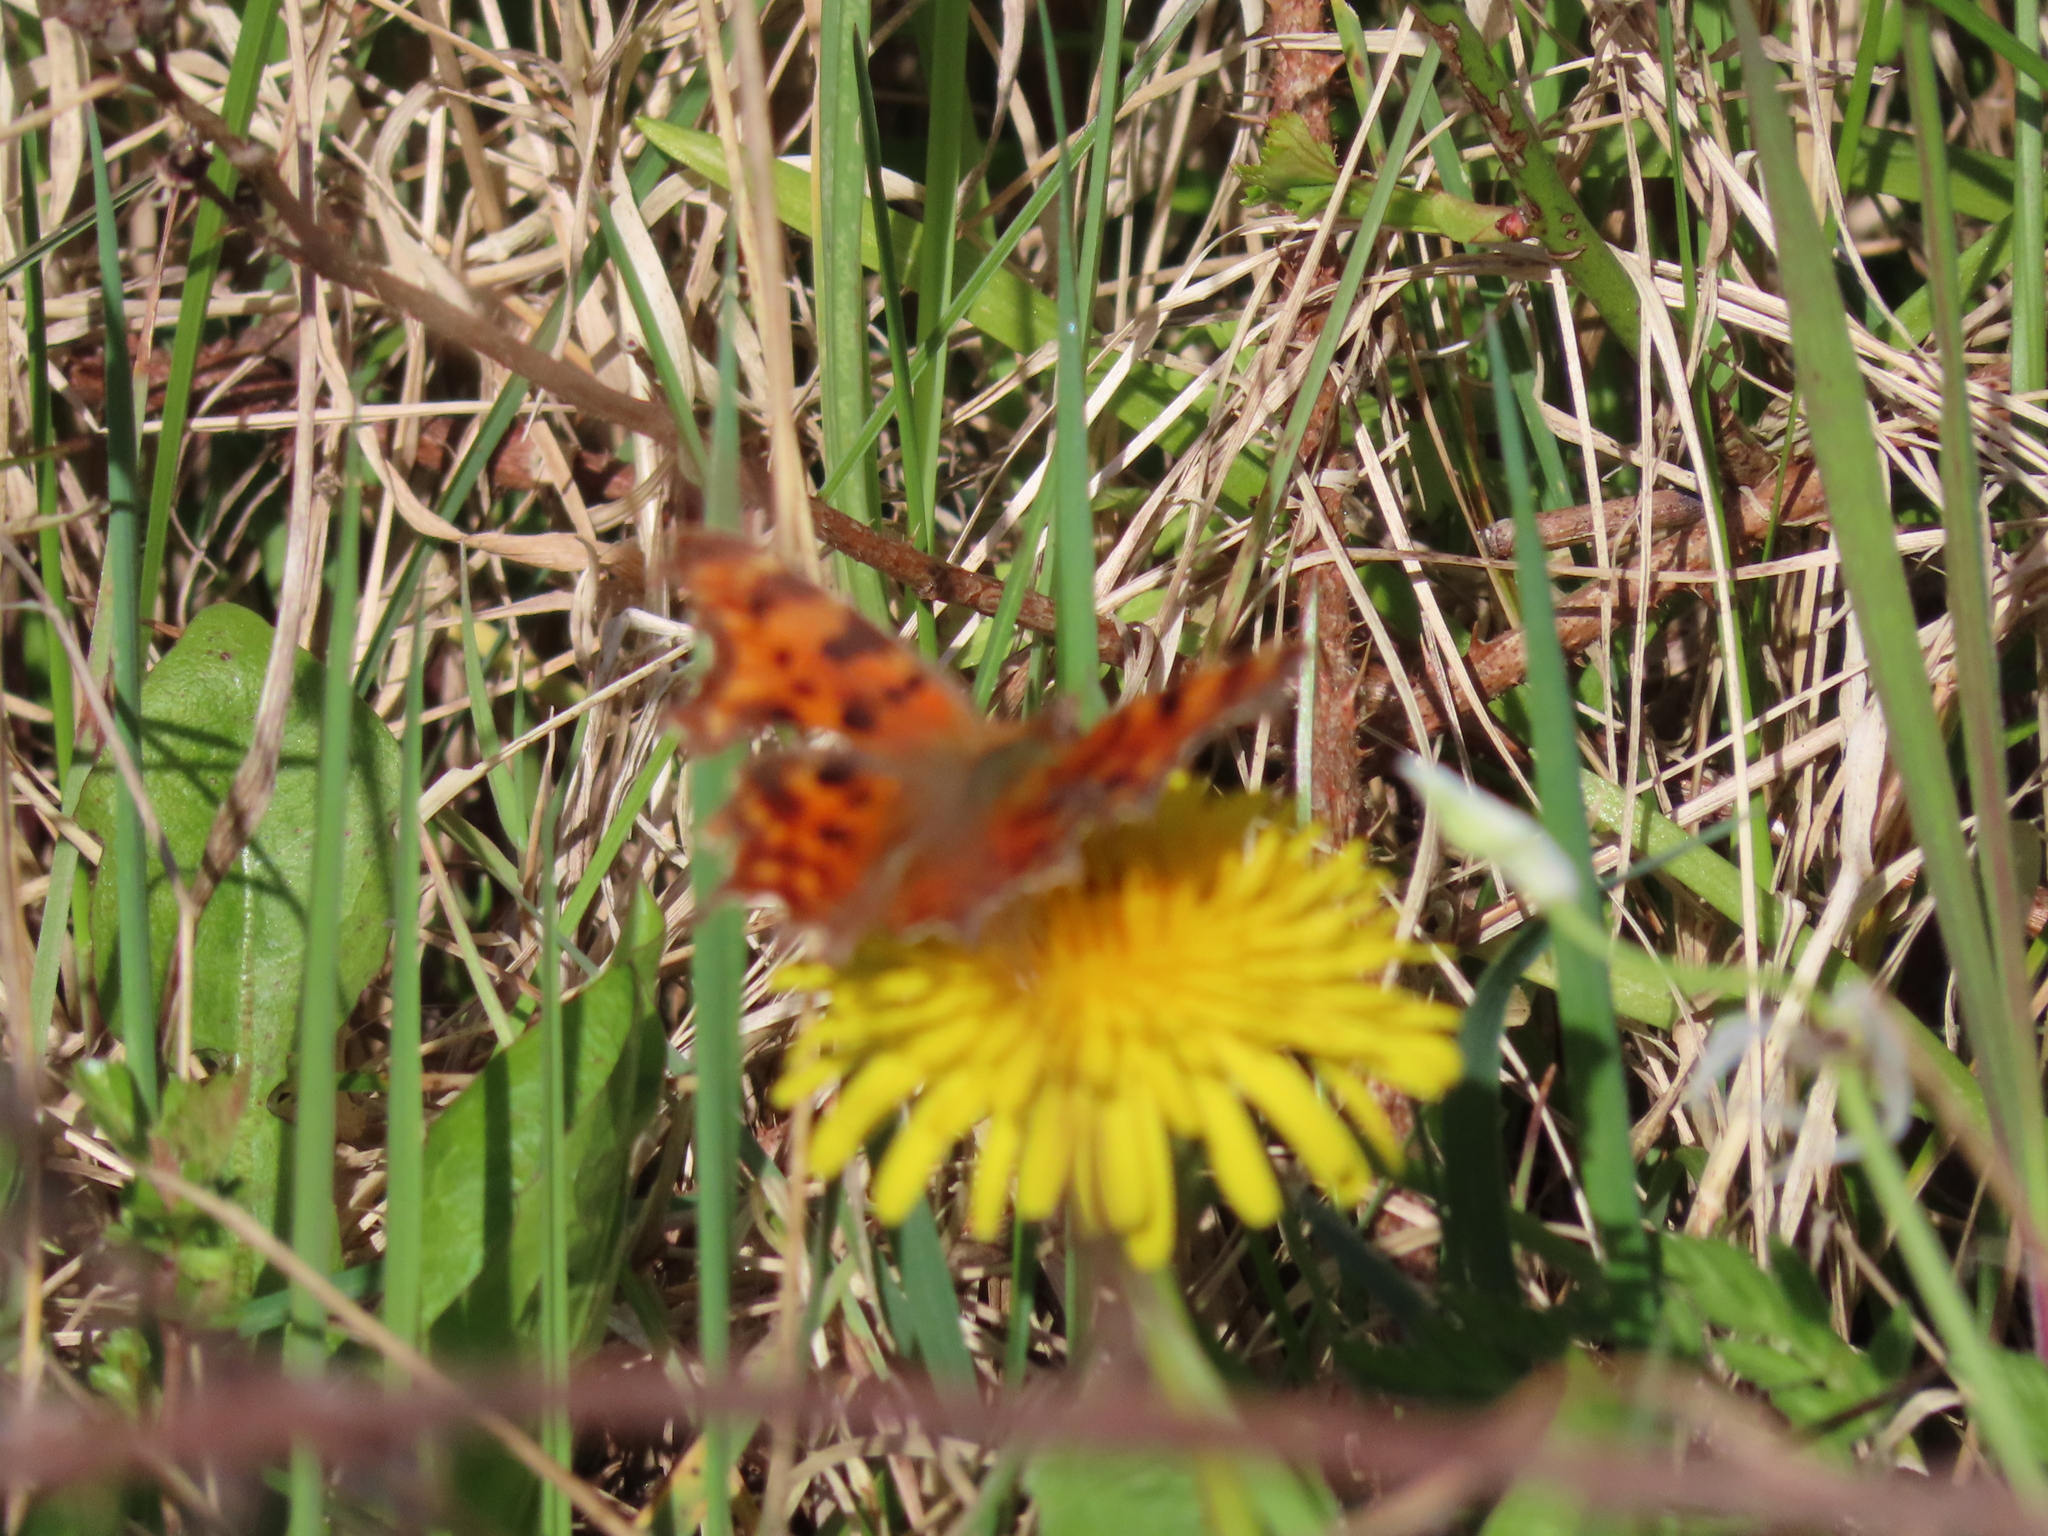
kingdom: Animalia
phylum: Arthropoda
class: Insecta
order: Lepidoptera
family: Nymphalidae
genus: Polygonia
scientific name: Polygonia c-album
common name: Comma
